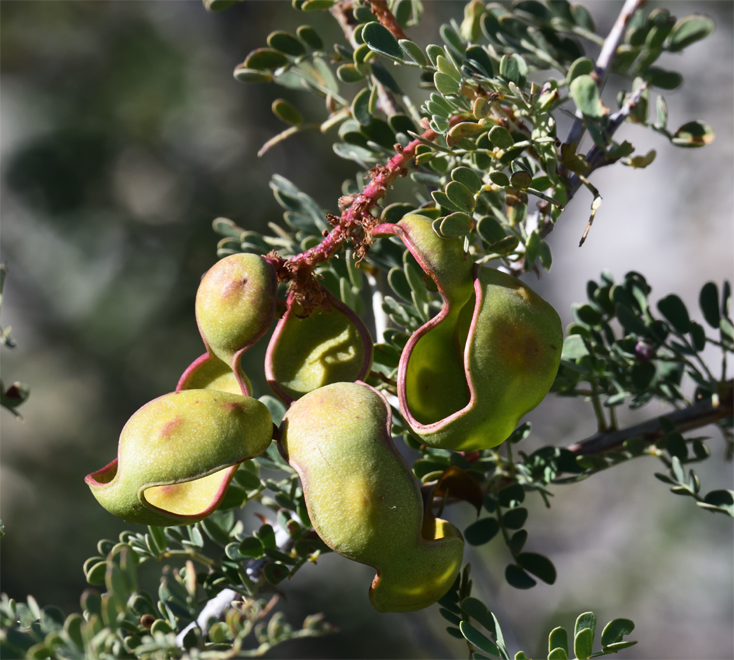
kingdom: Plantae
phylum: Tracheophyta
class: Magnoliopsida
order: Fabales
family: Fabaceae
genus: Senegalia
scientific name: Senegalia greggii
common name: Texas-mimosa
